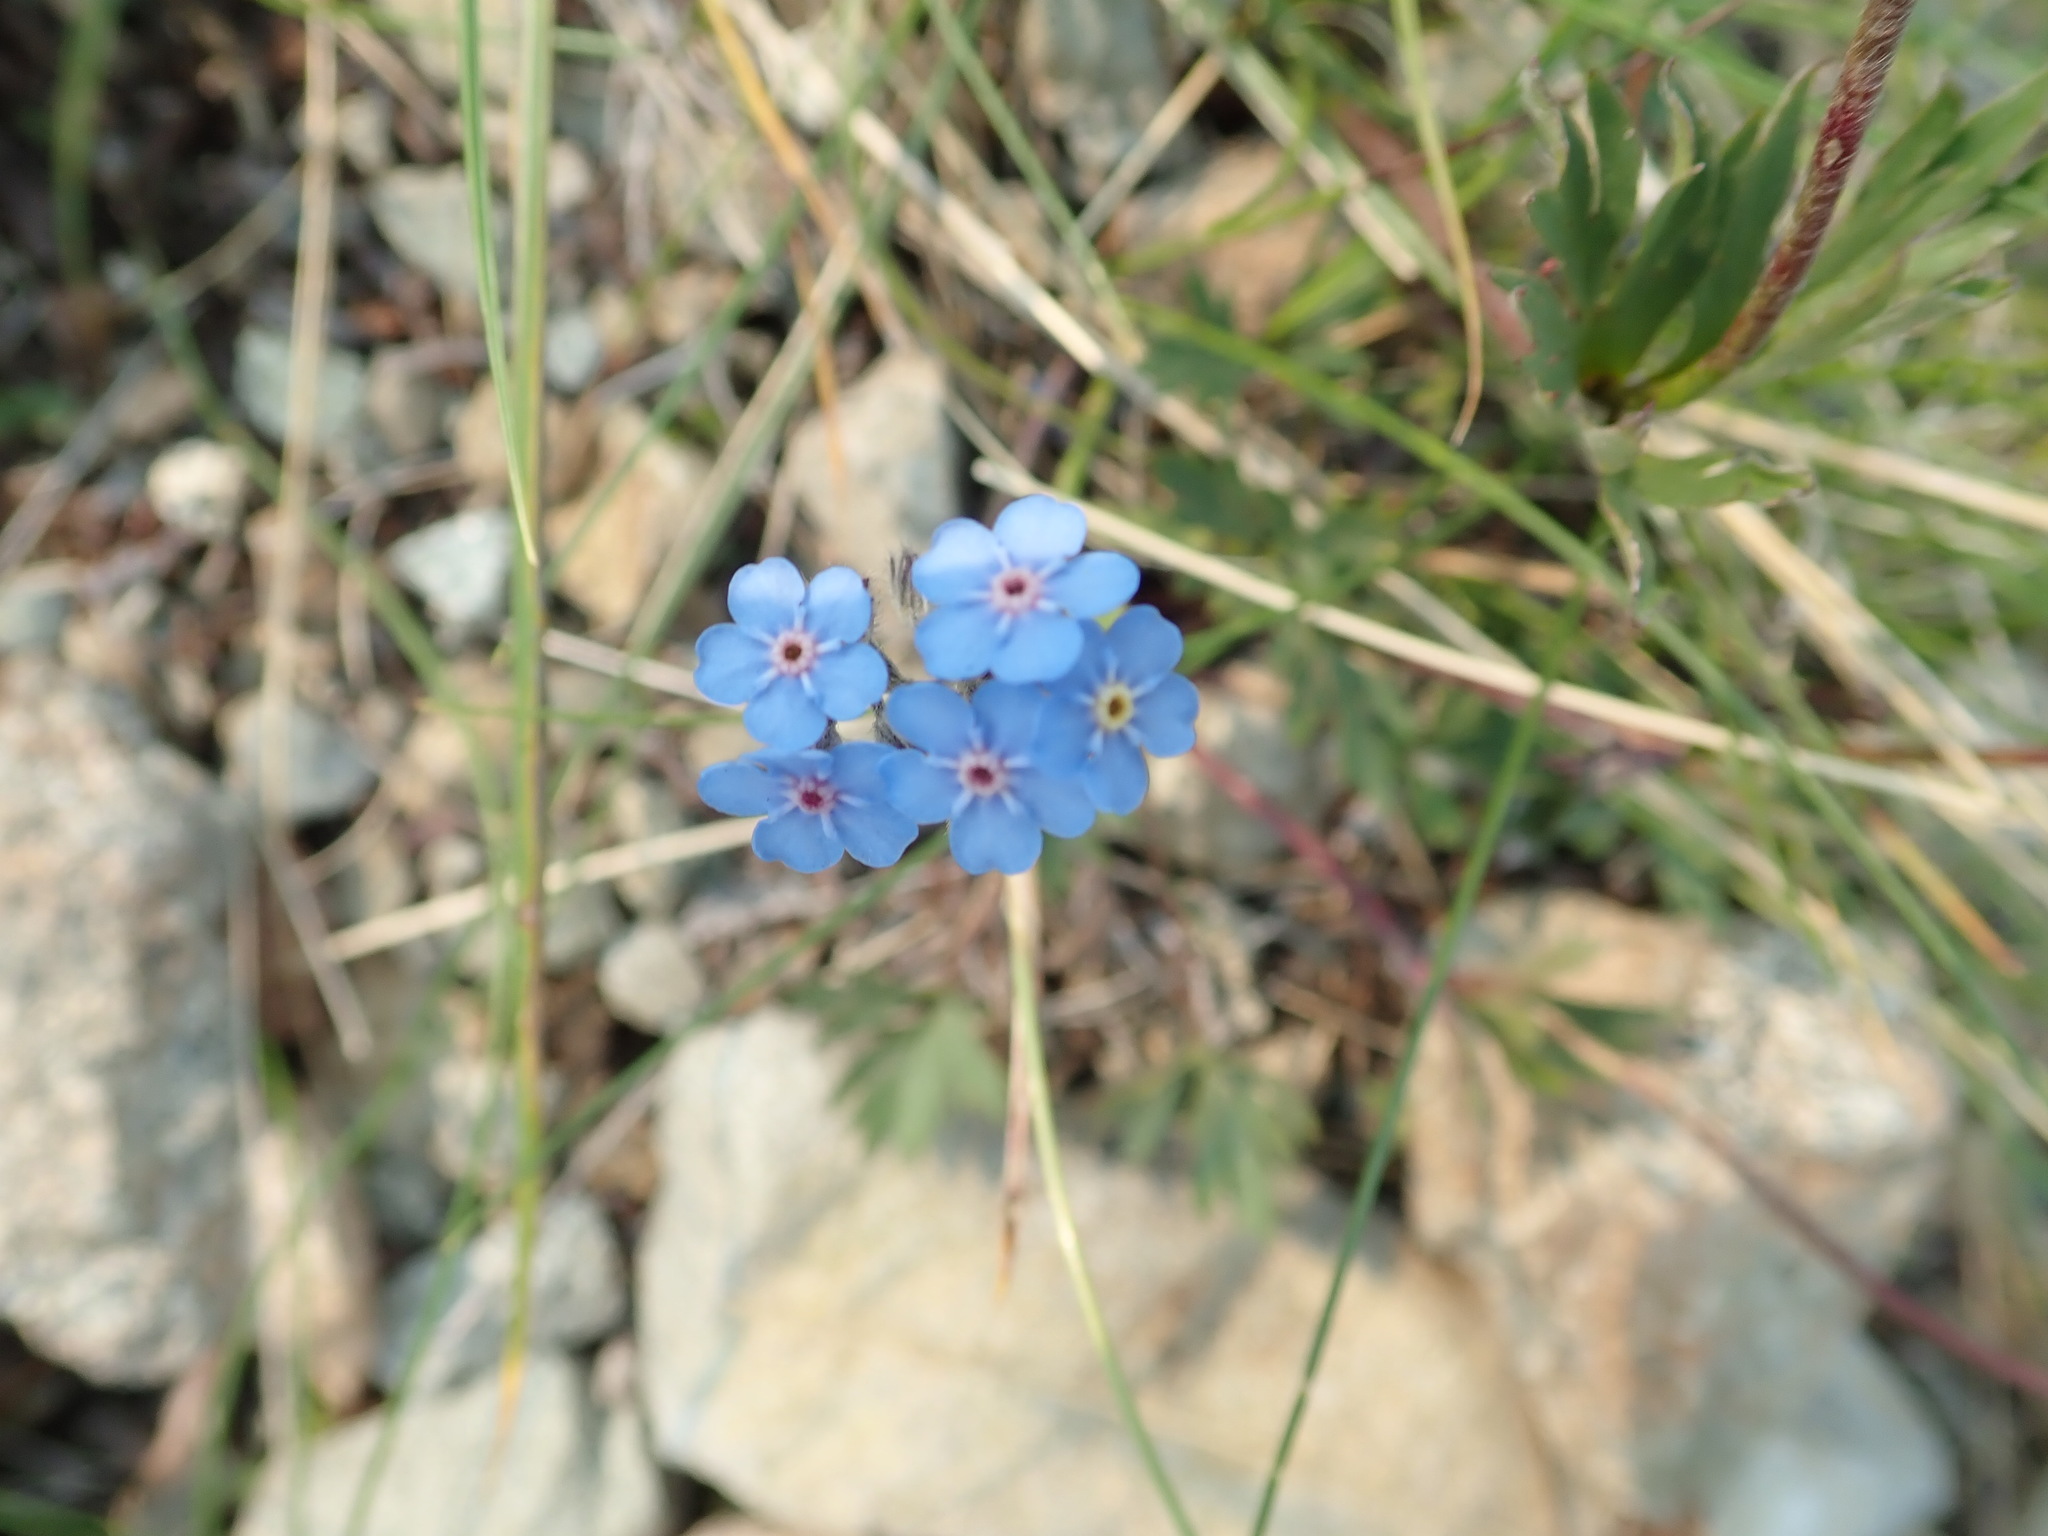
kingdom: Plantae
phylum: Tracheophyta
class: Magnoliopsida
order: Boraginales
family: Boraginaceae
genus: Myosotis
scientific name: Myosotis asiatica
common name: Asian forget-me-not
